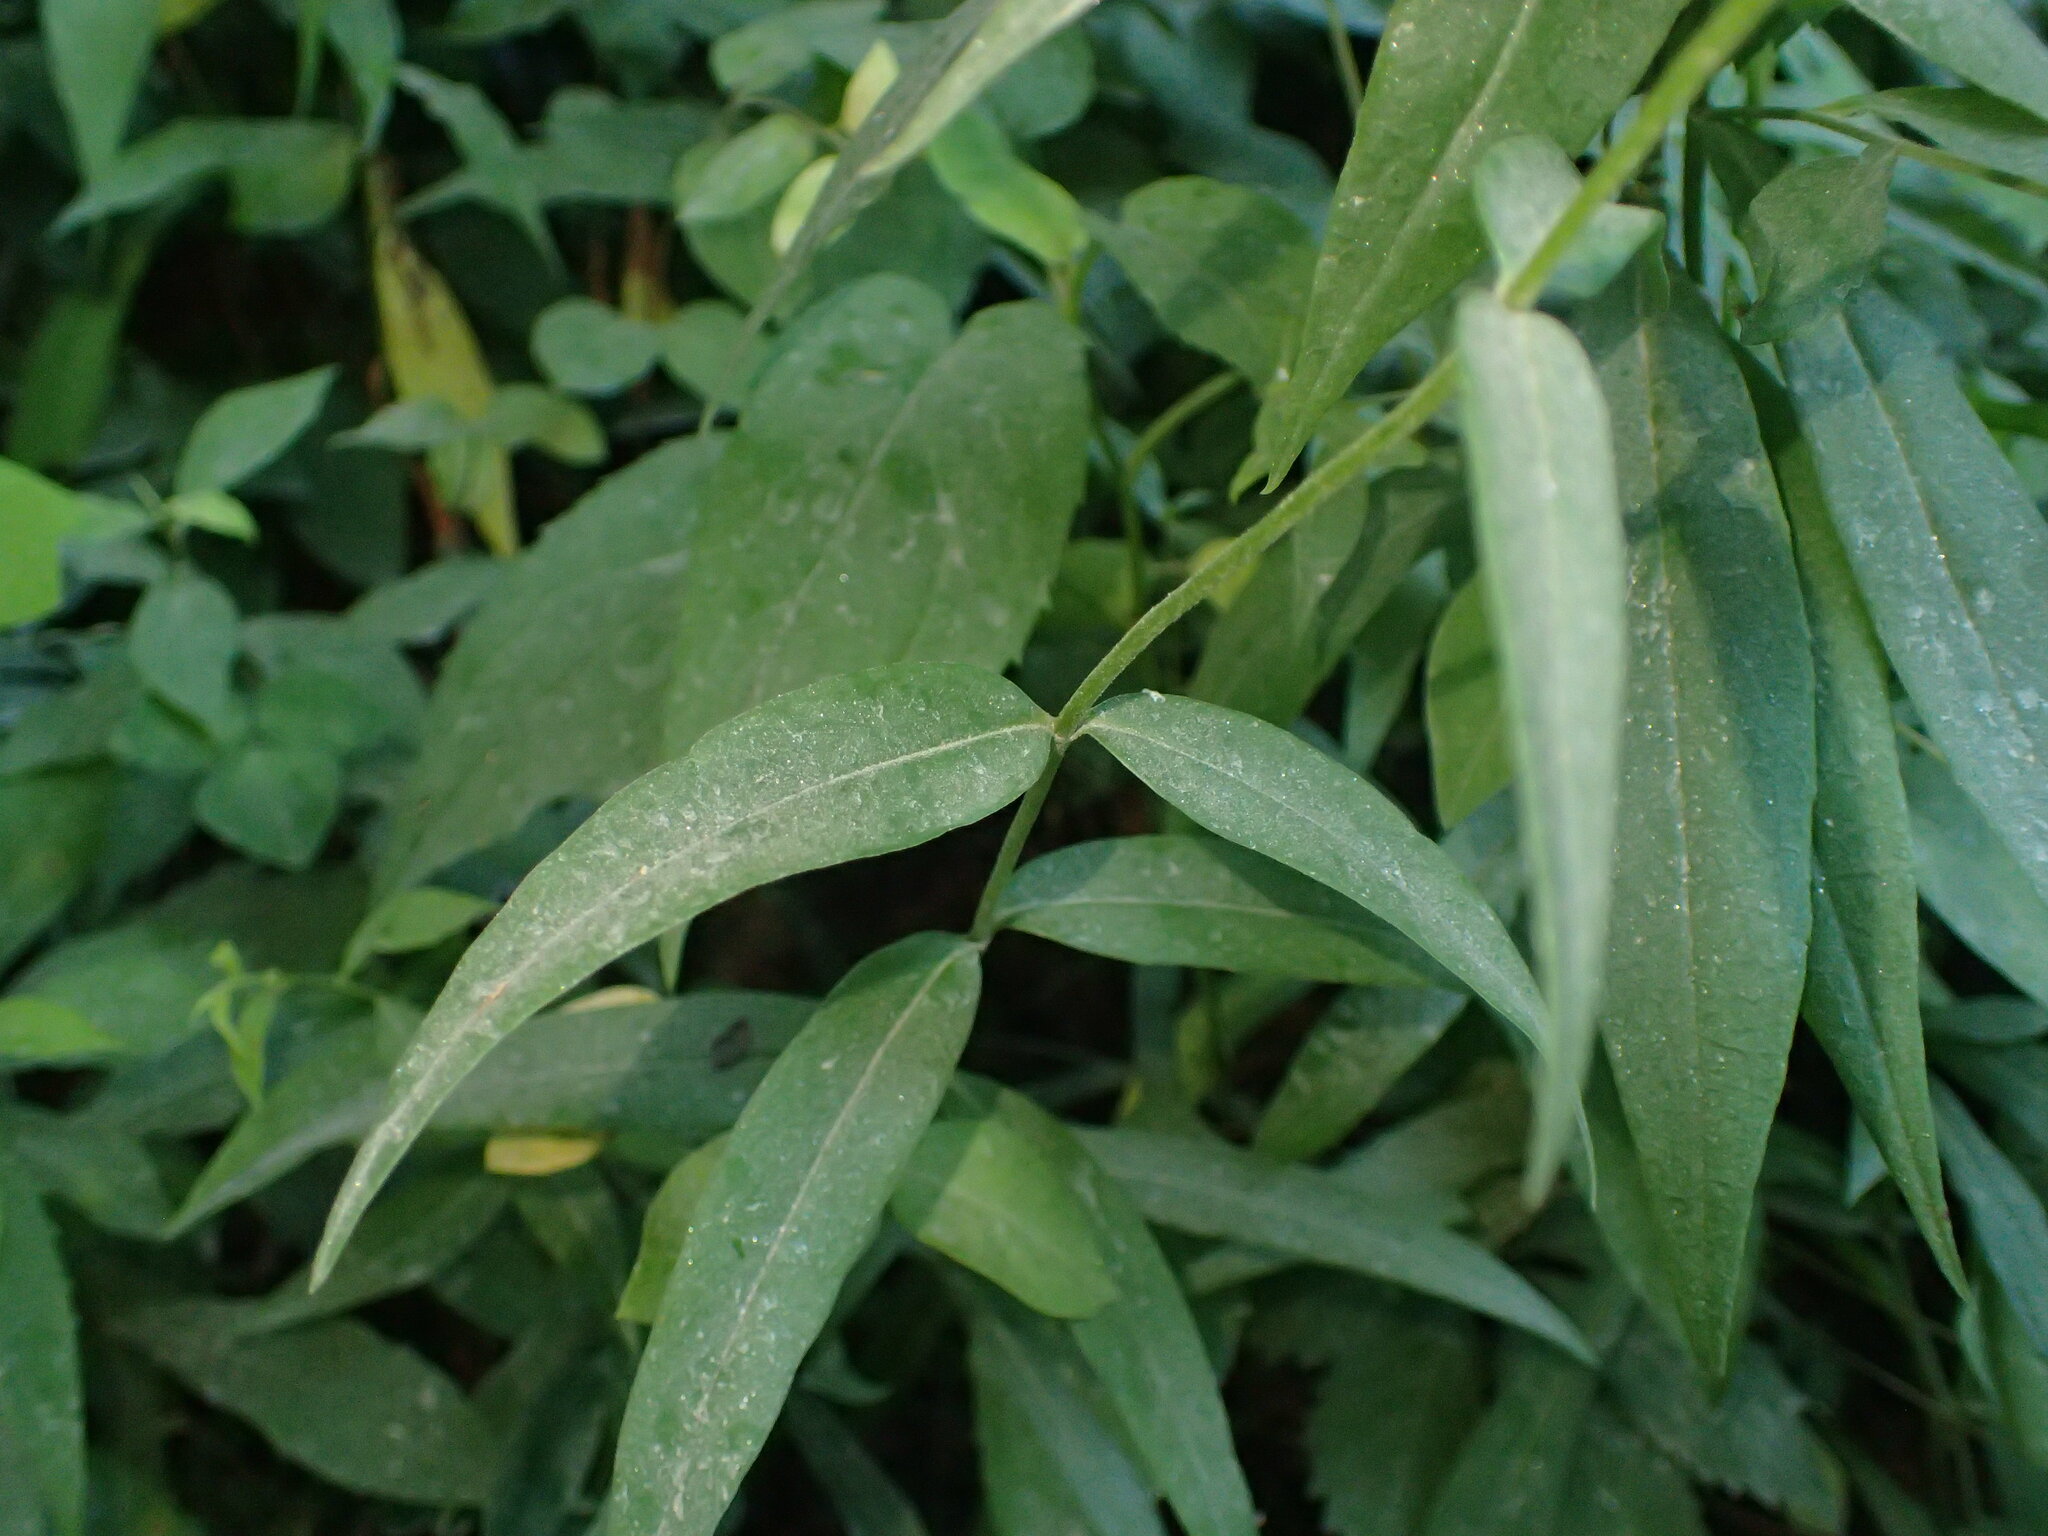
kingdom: Plantae
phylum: Tracheophyta
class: Magnoliopsida
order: Ericales
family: Polemoniaceae
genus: Phlox
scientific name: Phlox carolina
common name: Thick-leaf phlox
